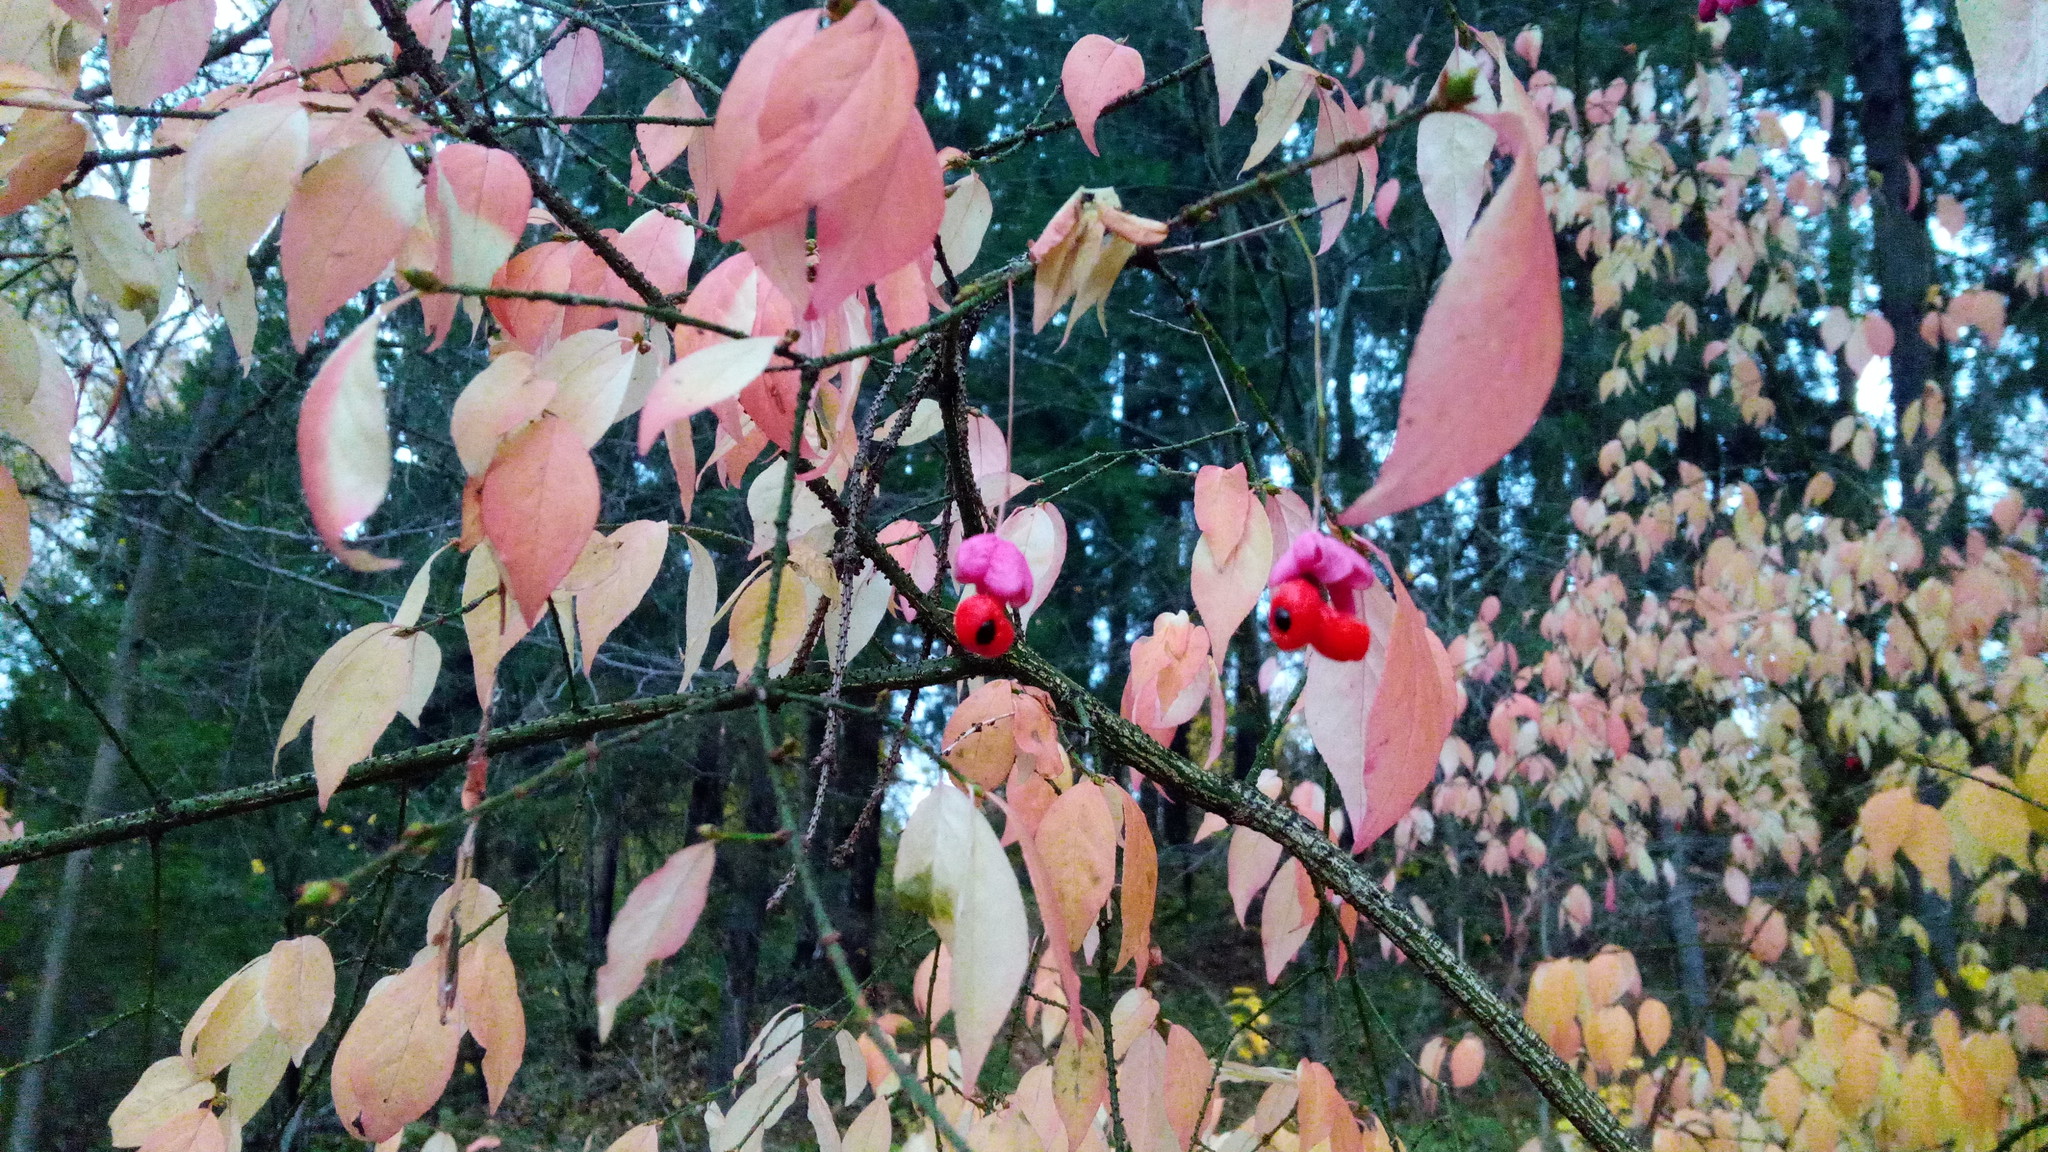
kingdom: Plantae
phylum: Tracheophyta
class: Magnoliopsida
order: Celastrales
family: Celastraceae
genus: Euonymus
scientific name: Euonymus verrucosus
